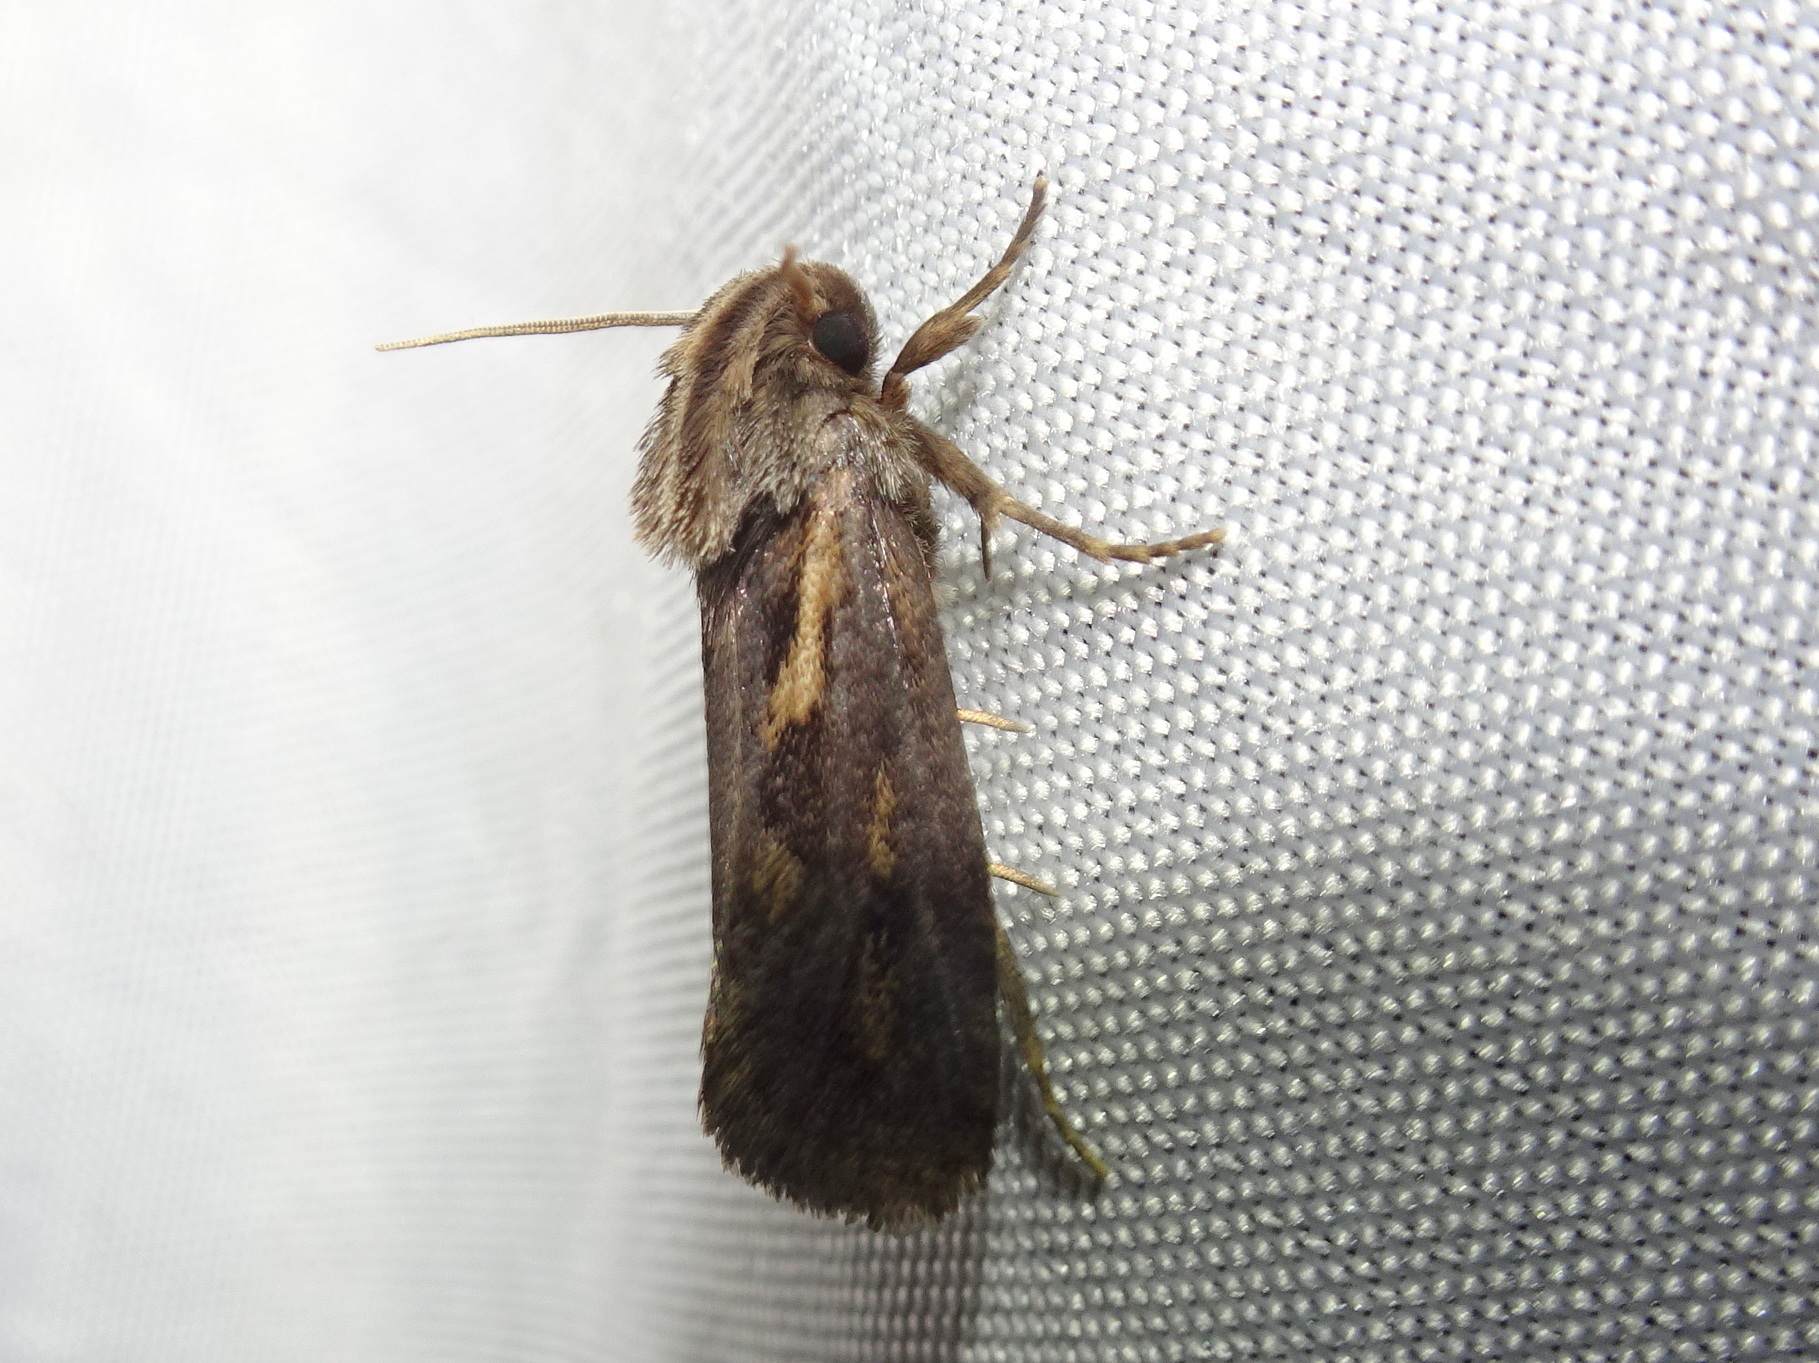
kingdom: Animalia
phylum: Arthropoda
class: Insecta
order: Lepidoptera
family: Tineidae
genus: Acrolophus
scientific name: Acrolophus popeanella
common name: Clemens' grass tubeworm moth
